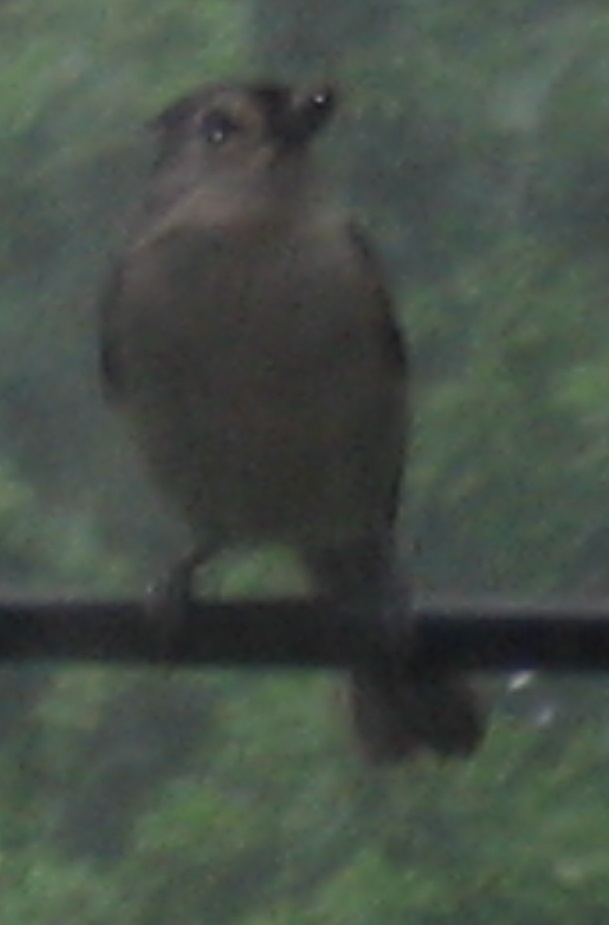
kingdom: Animalia
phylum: Chordata
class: Aves
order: Passeriformes
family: Paridae
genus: Baeolophus
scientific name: Baeolophus bicolor
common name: Tufted titmouse
